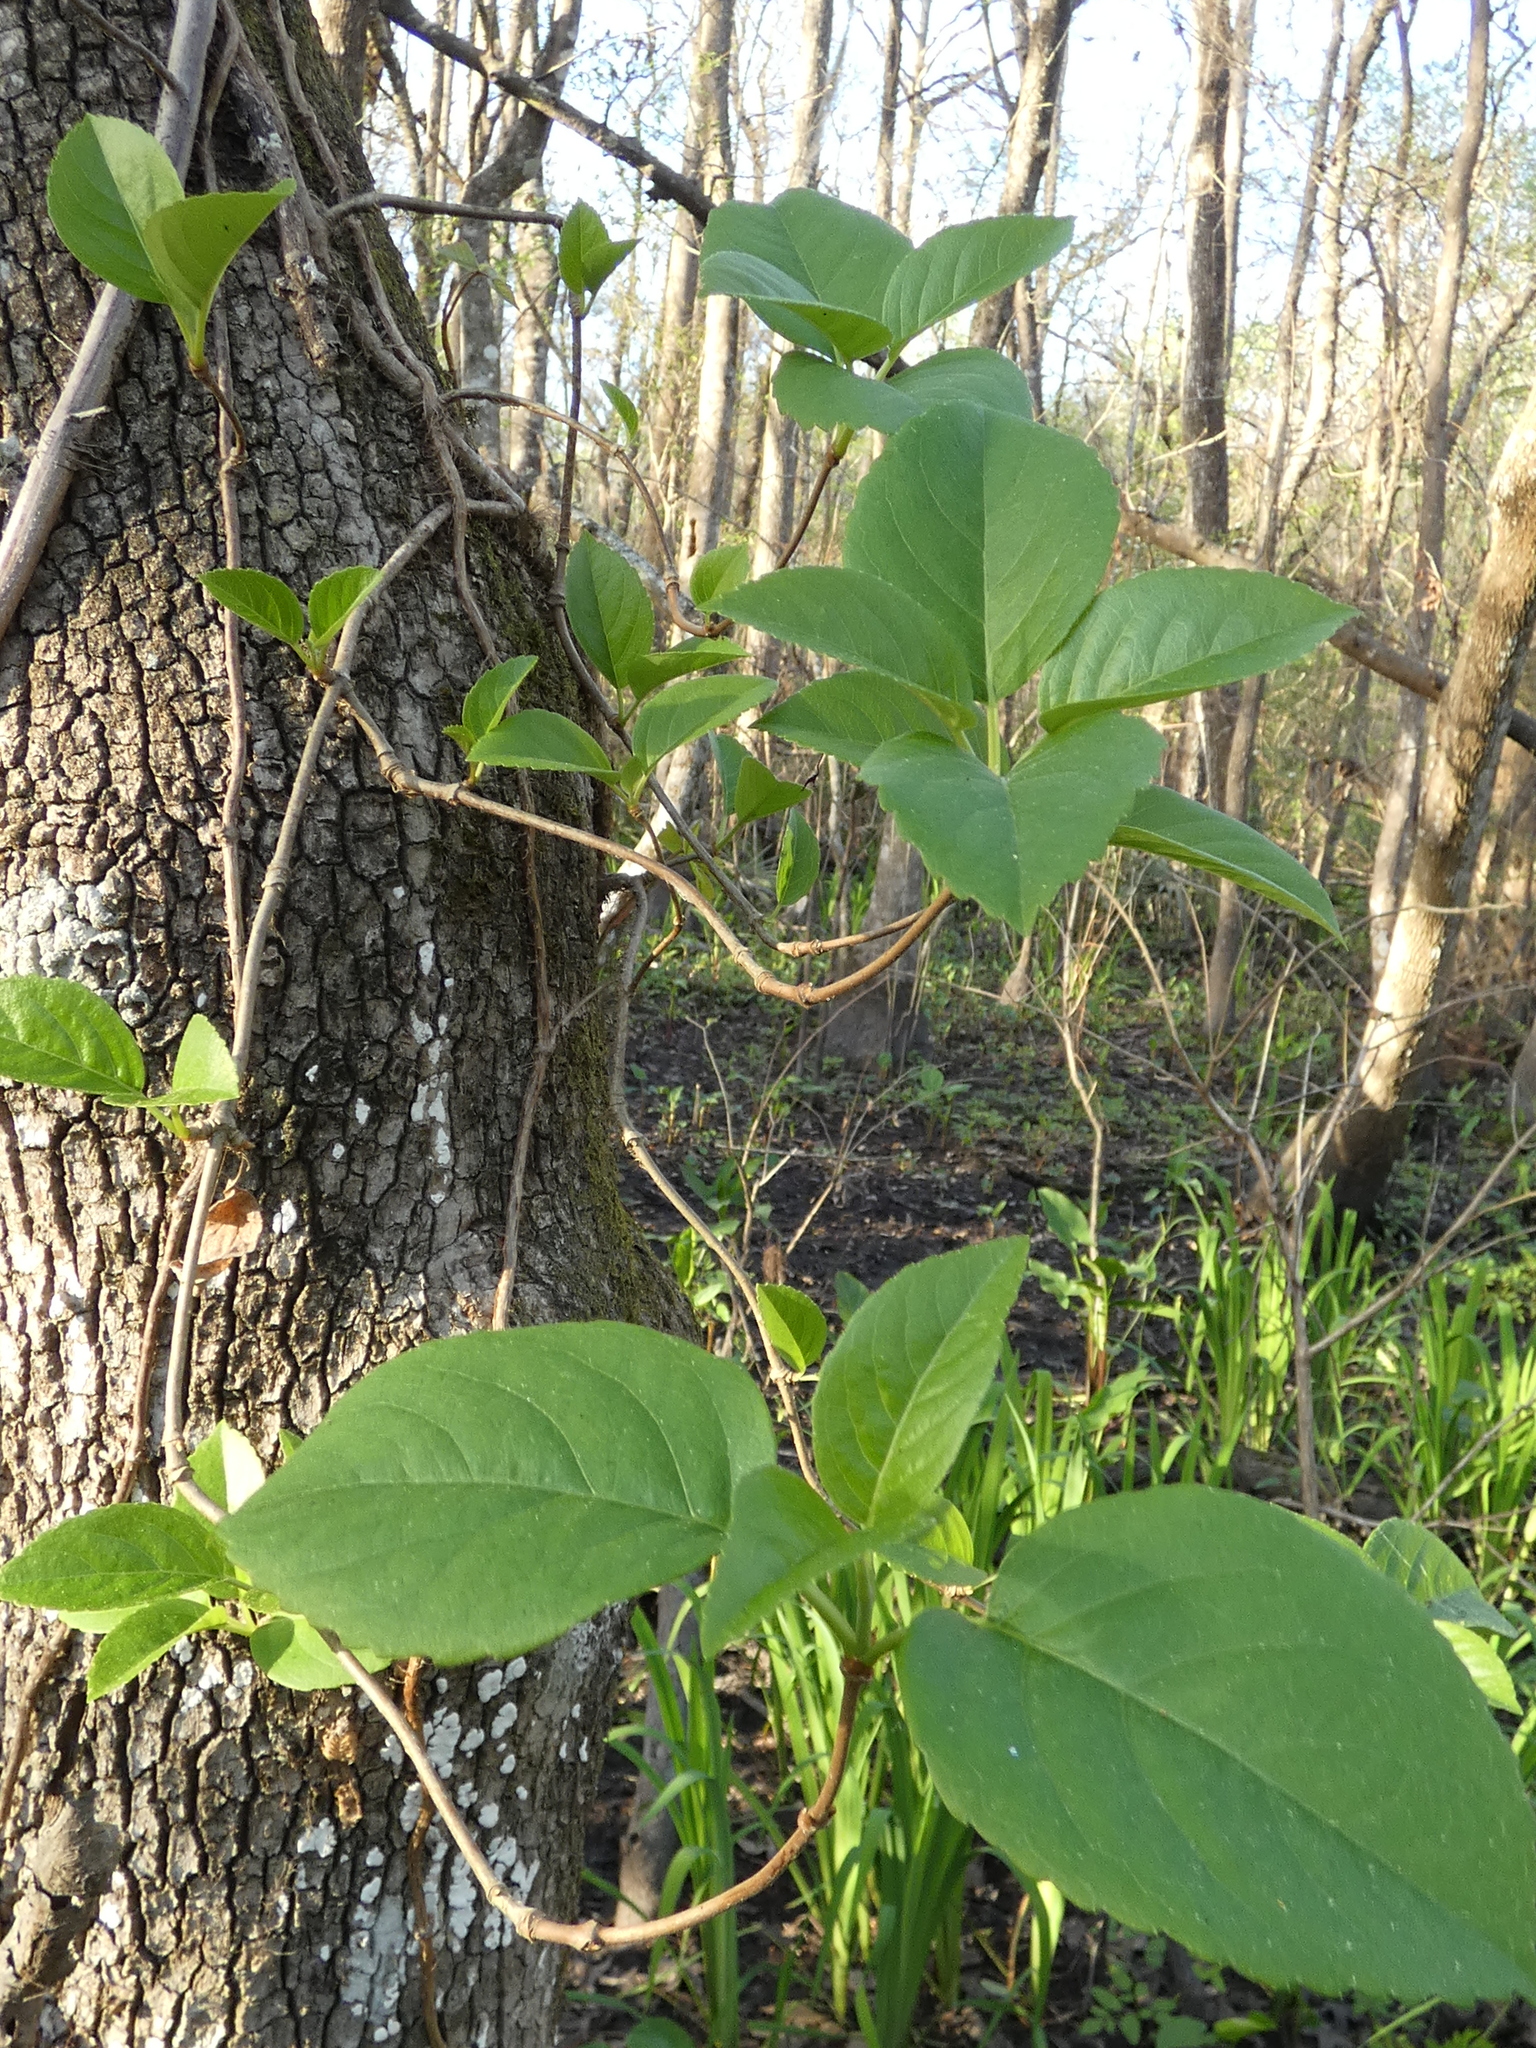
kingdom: Plantae
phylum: Tracheophyta
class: Magnoliopsida
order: Cornales
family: Hydrangeaceae
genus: Hydrangea
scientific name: Hydrangea barbara
